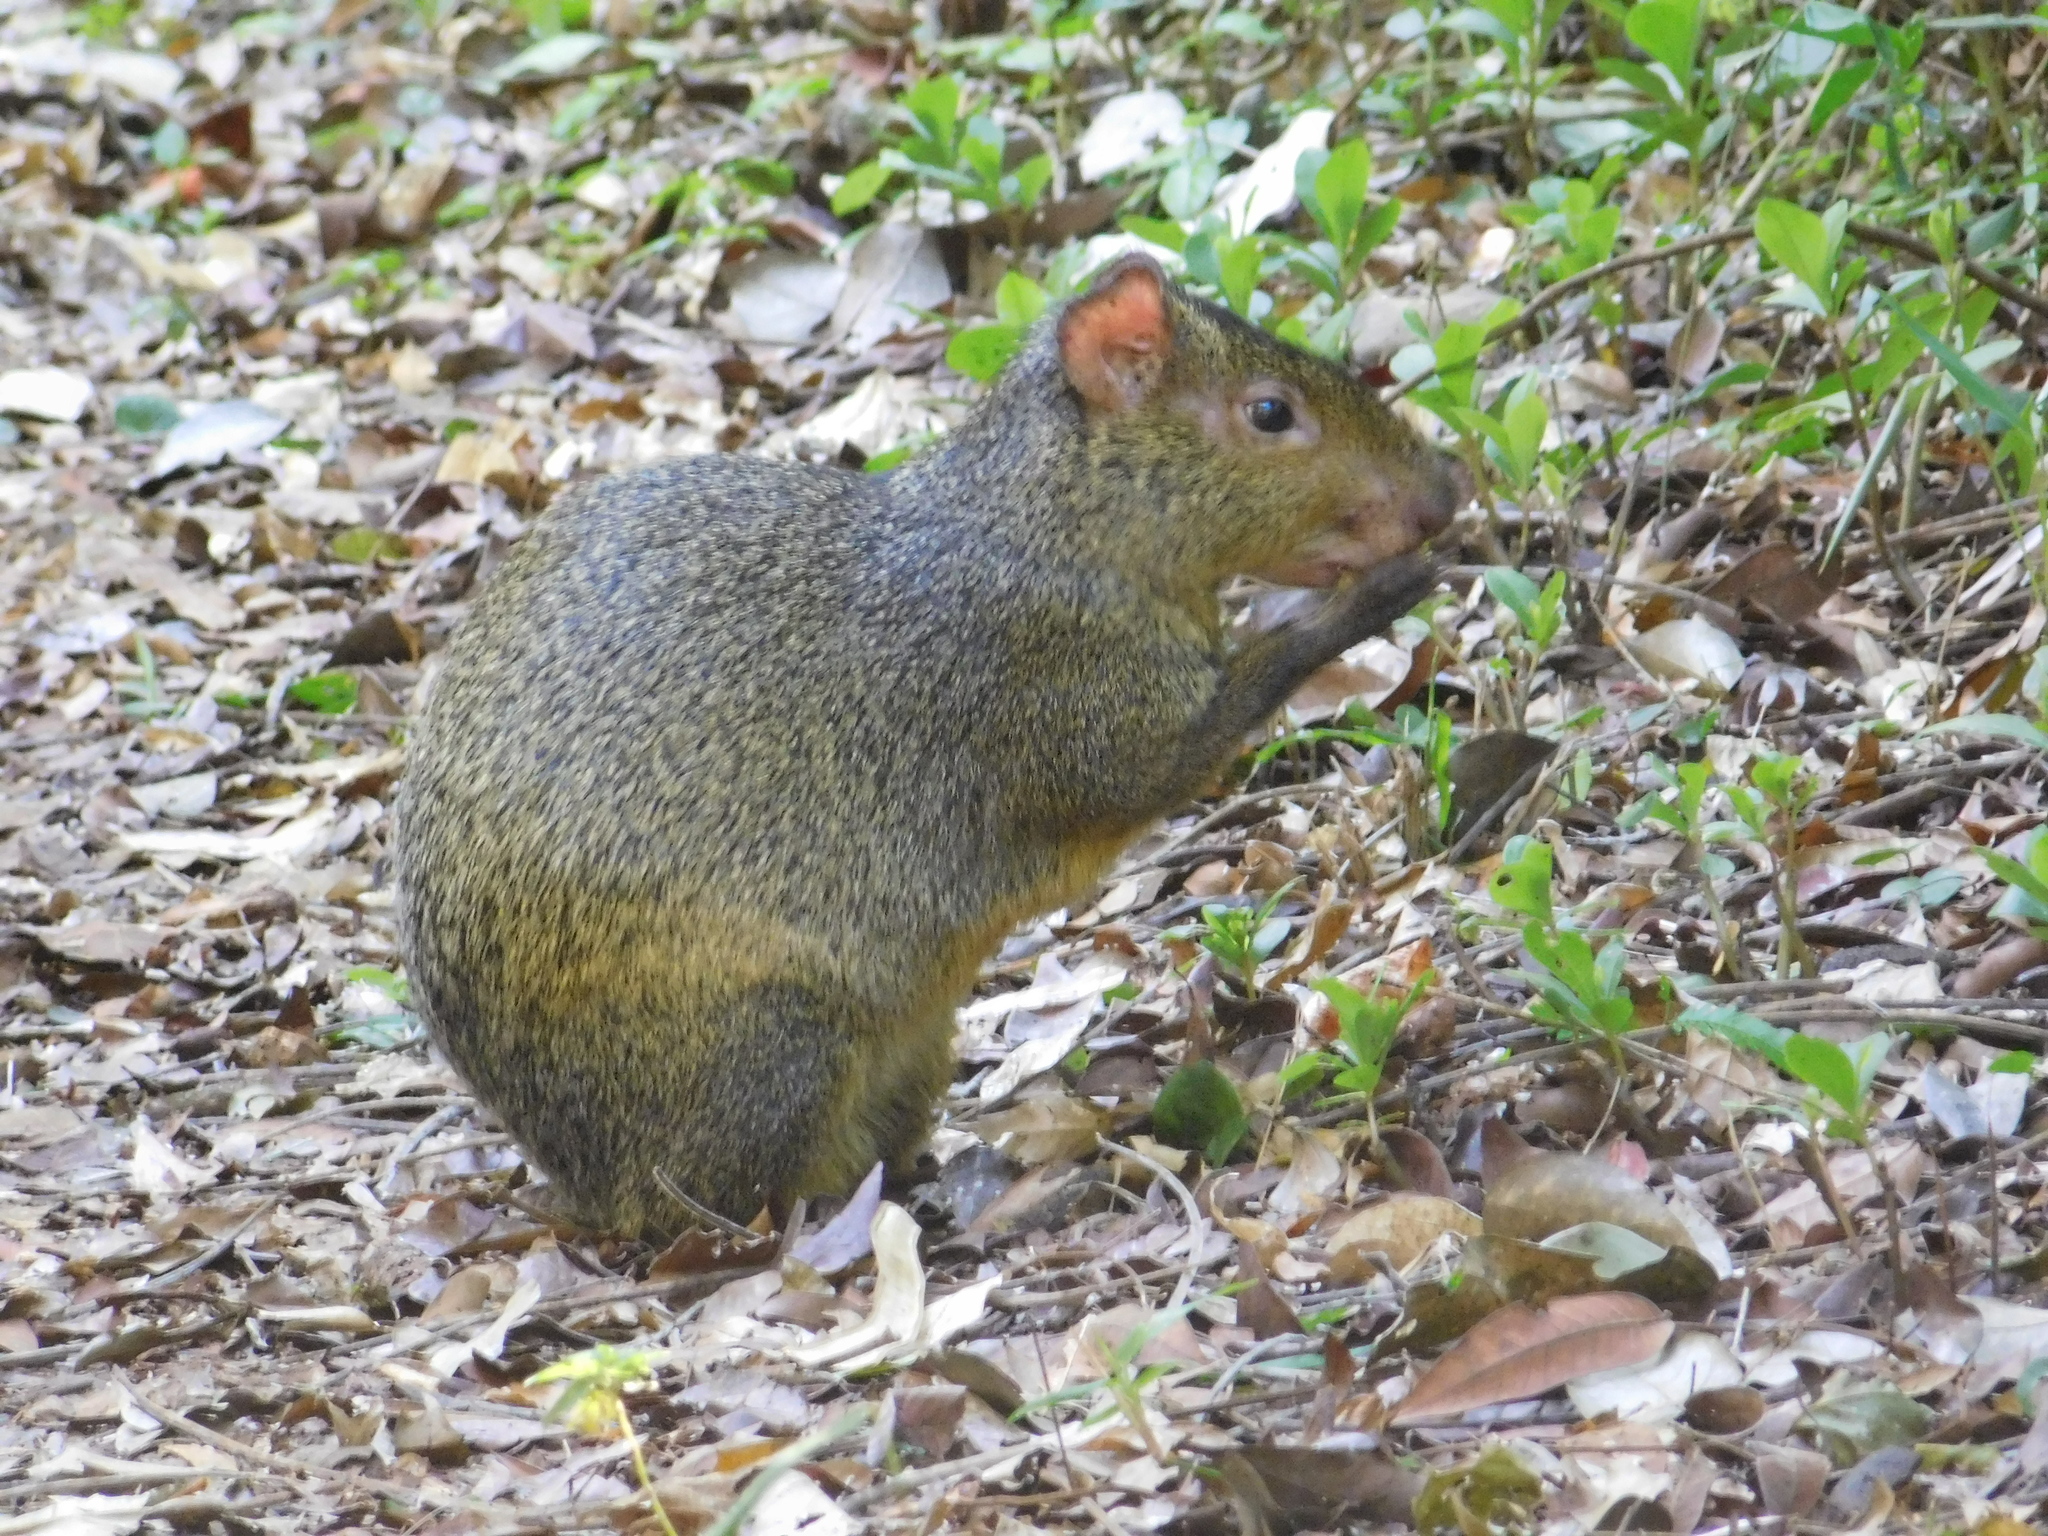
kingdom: Animalia
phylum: Chordata
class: Mammalia
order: Rodentia
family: Dasyproctidae
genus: Dasyprocta
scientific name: Dasyprocta azarae
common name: Azara's agouti
